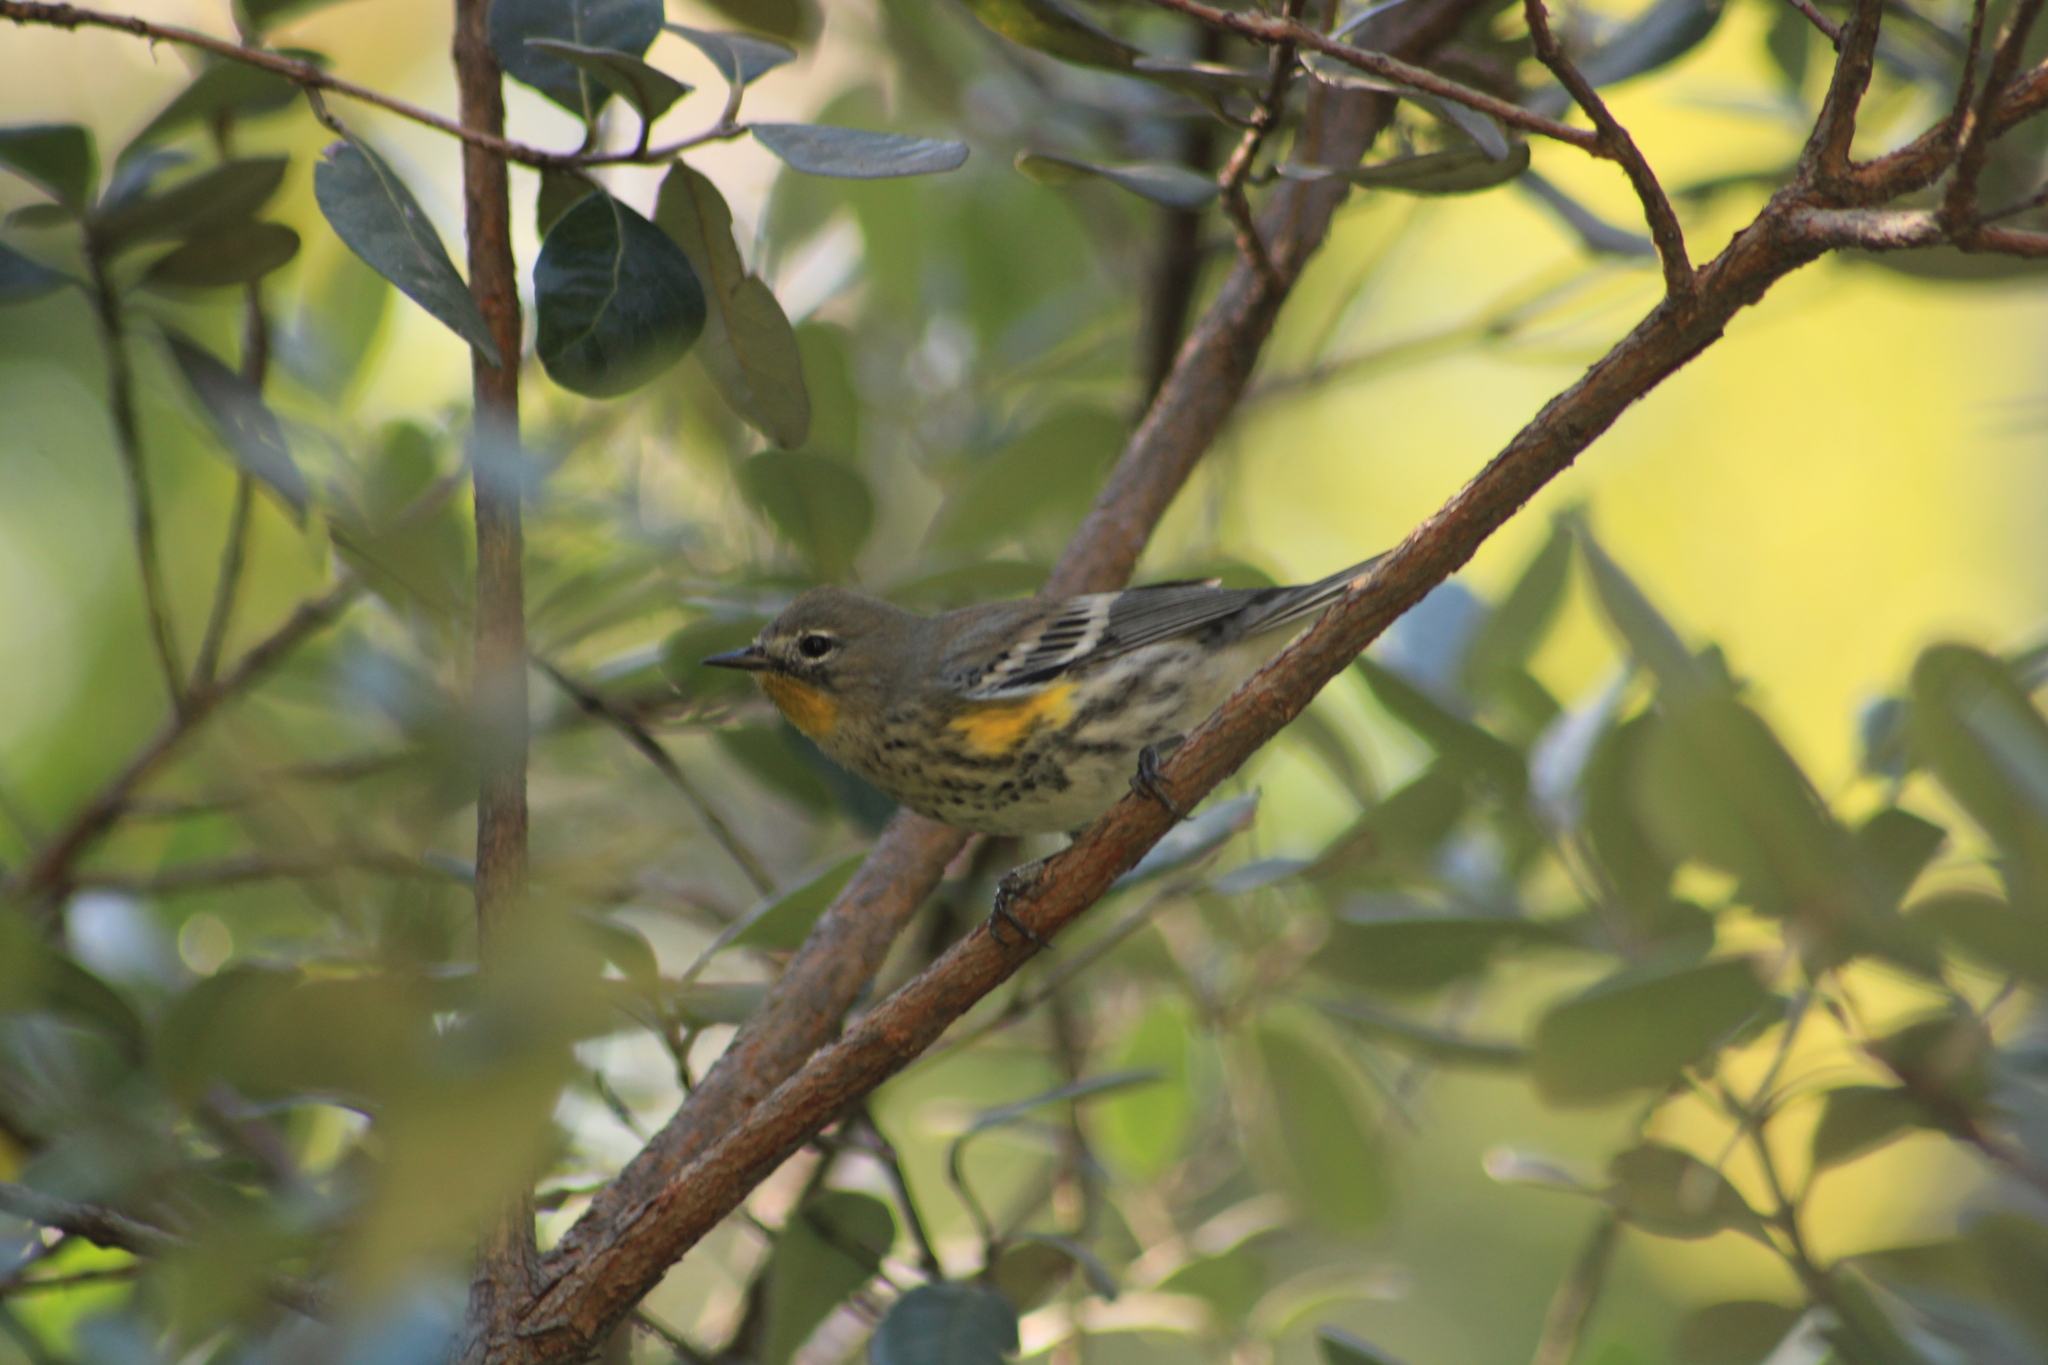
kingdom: Animalia
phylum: Chordata
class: Aves
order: Passeriformes
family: Parulidae
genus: Setophaga
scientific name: Setophaga auduboni
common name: Audubon's warbler
